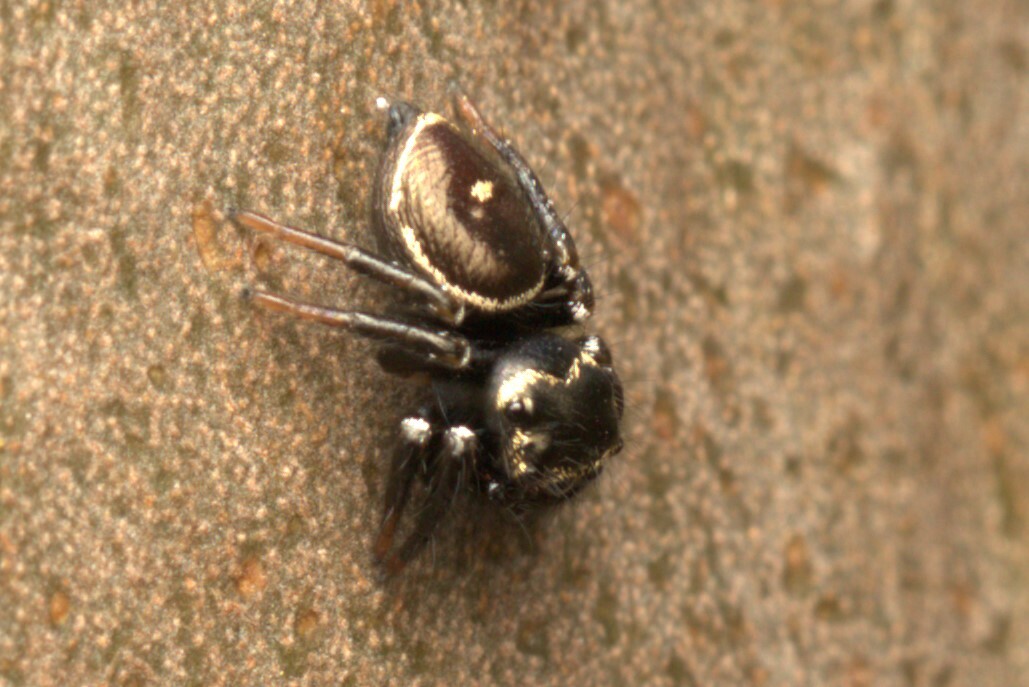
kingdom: Animalia
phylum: Arthropoda
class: Arachnida
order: Araneae
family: Salticidae
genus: Zenodorus
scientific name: Zenodorus orbiculatus
